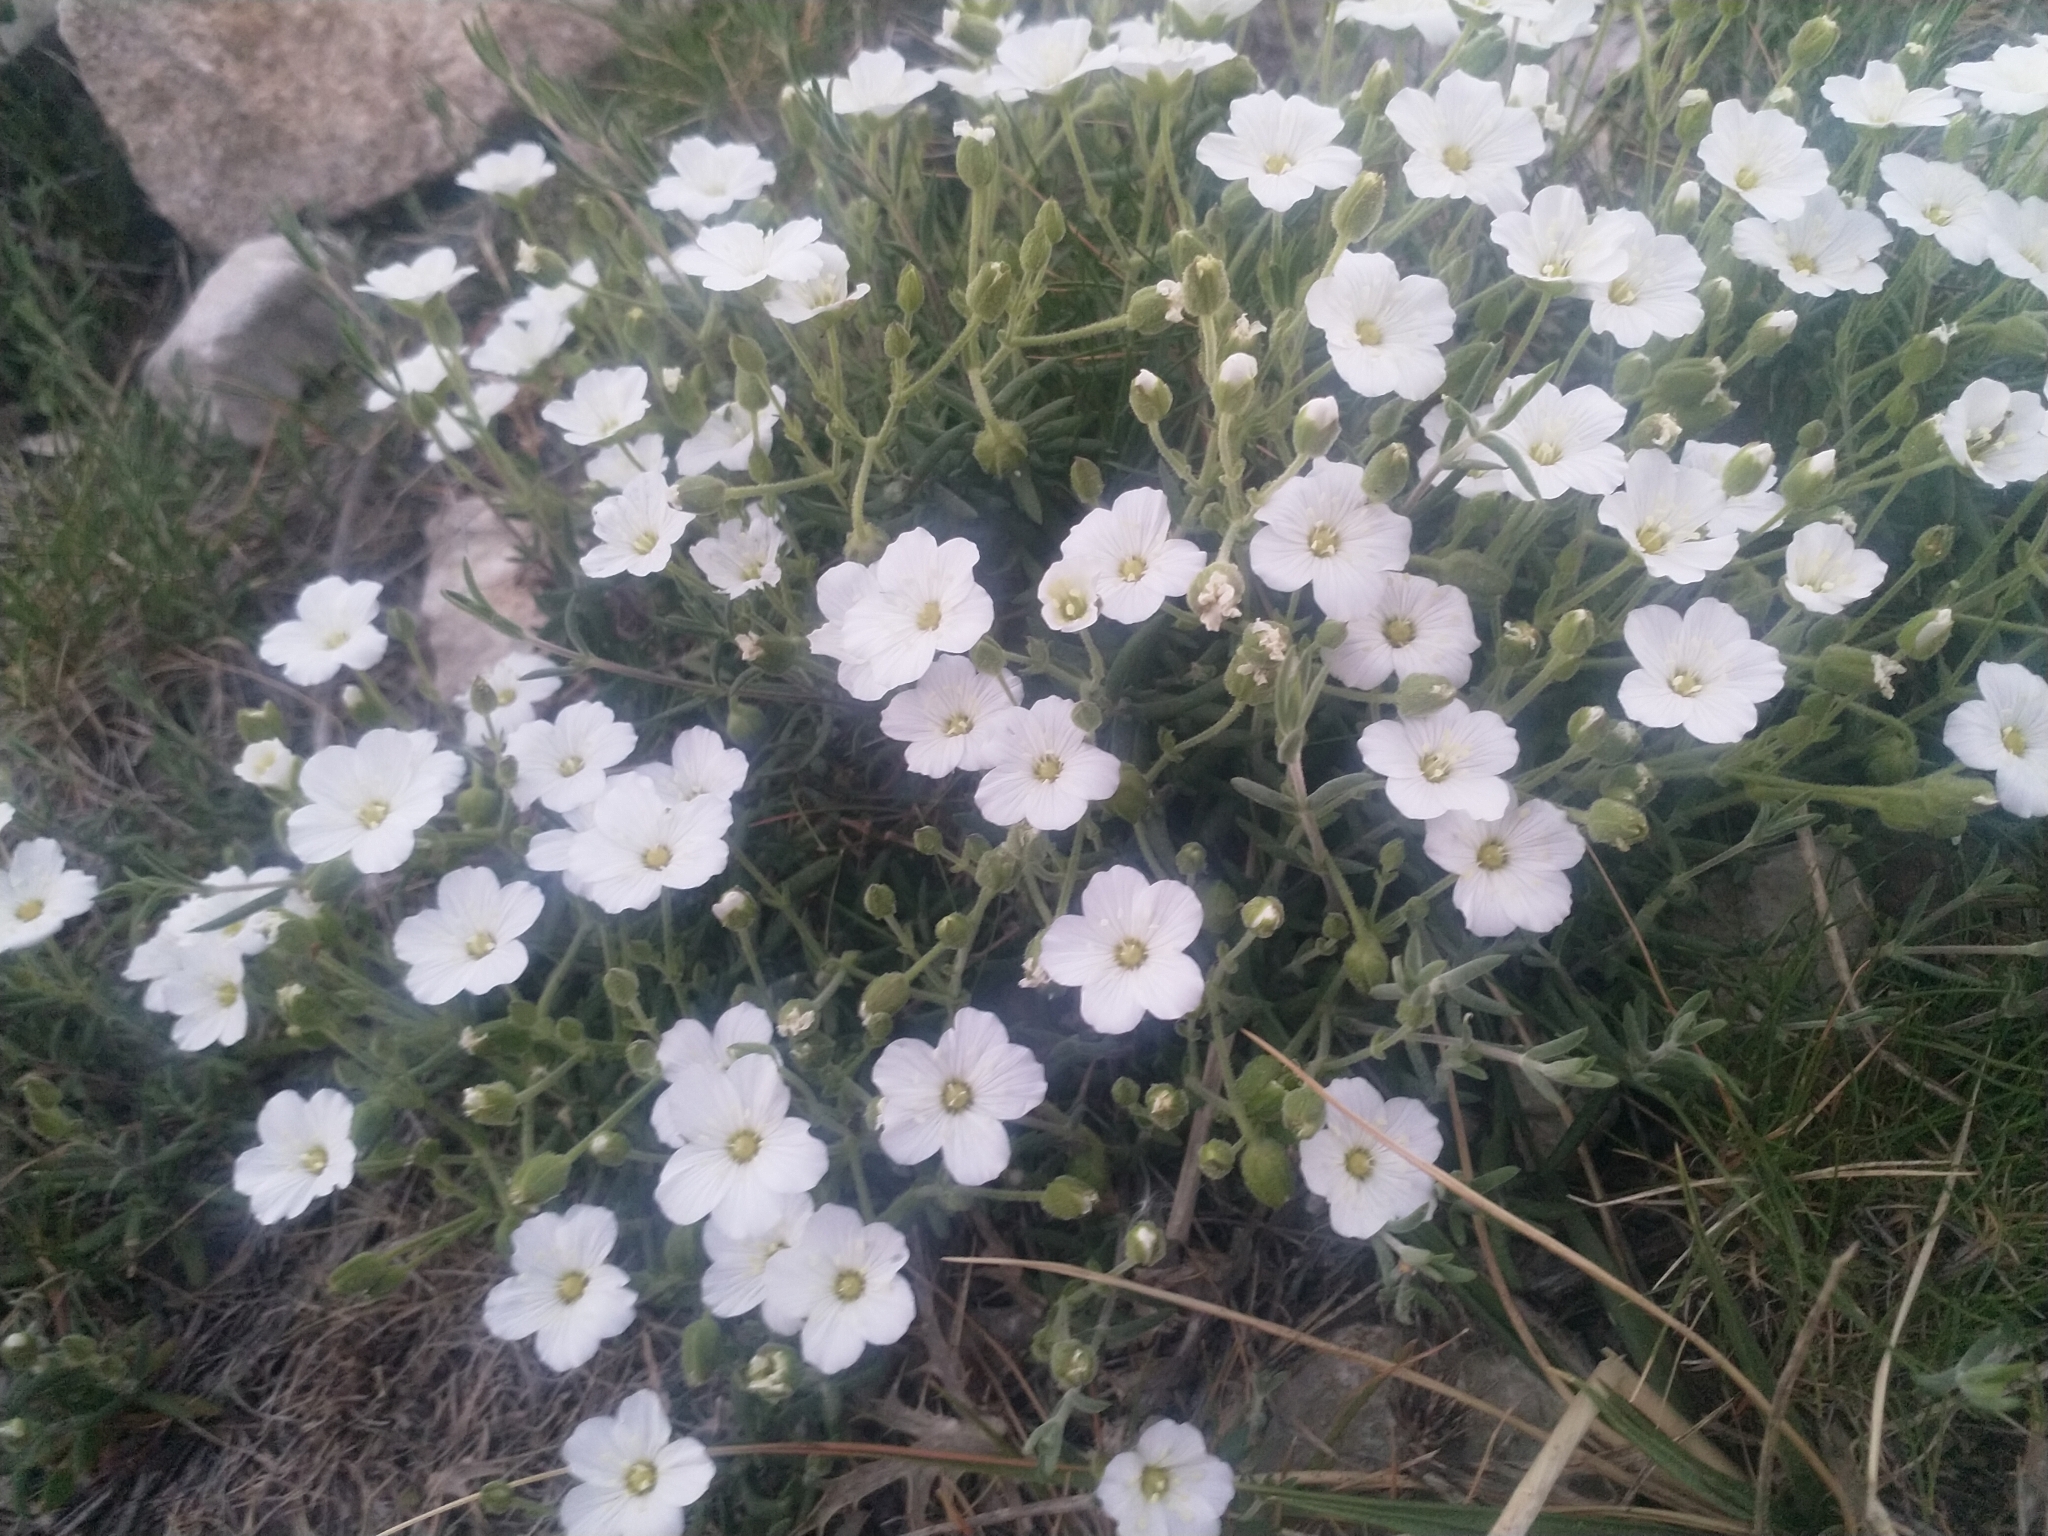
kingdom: Plantae
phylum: Tracheophyta
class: Magnoliopsida
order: Caryophyllales
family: Caryophyllaceae
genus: Arenaria
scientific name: Arenaria montana
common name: Mountain sandwort
